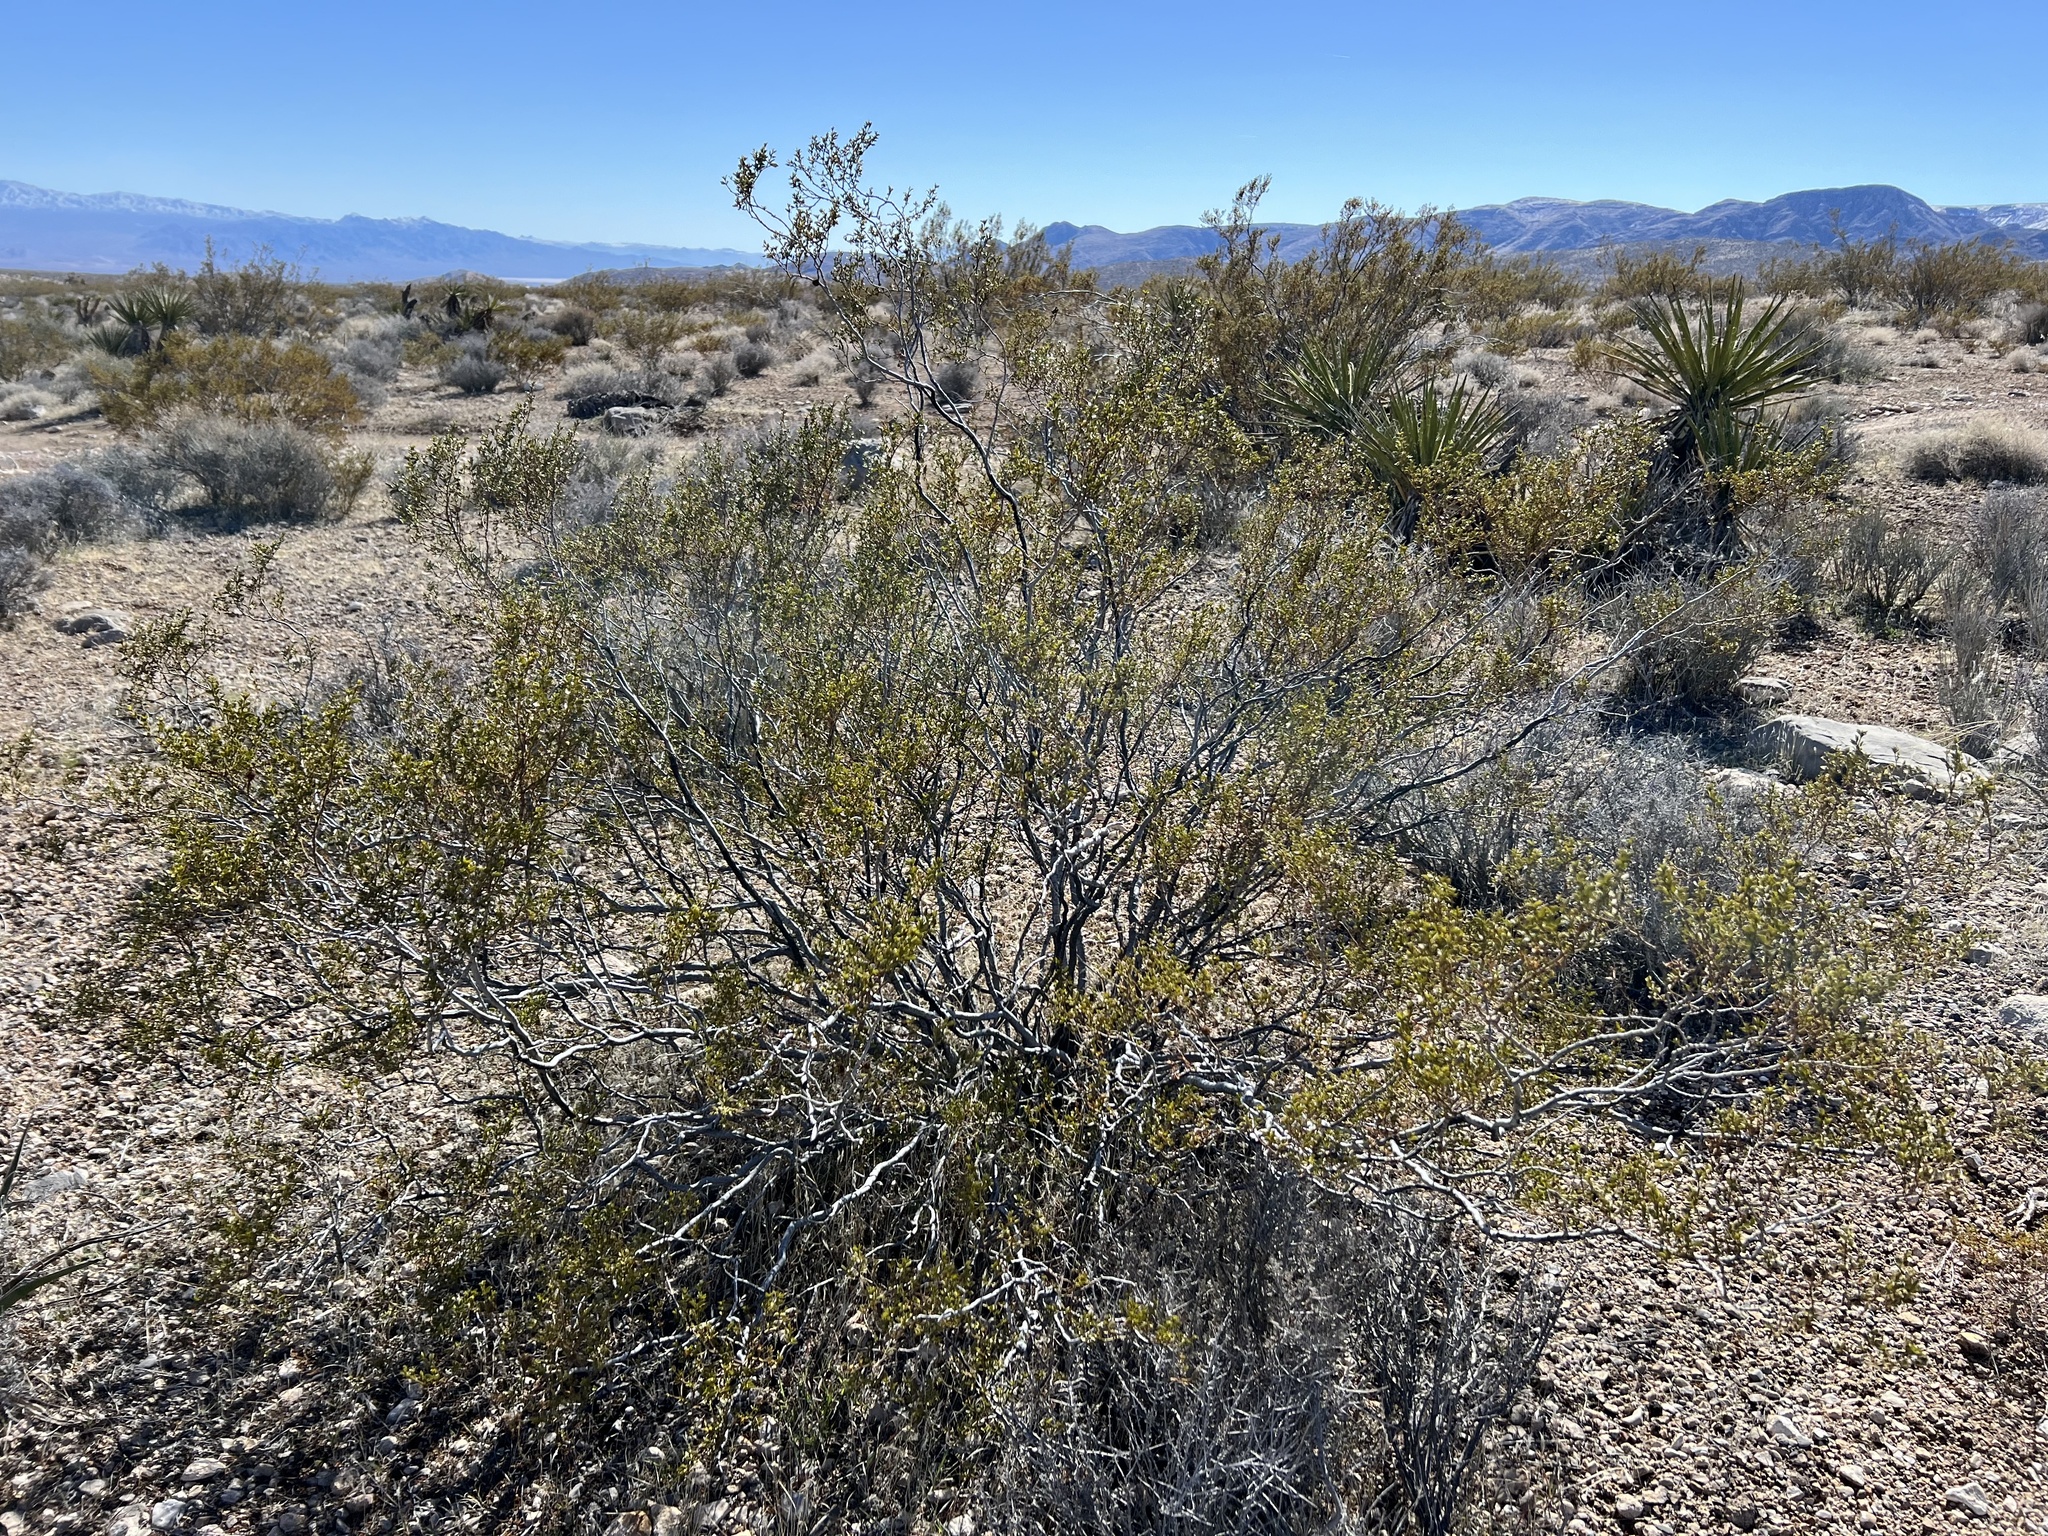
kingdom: Plantae
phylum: Tracheophyta
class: Magnoliopsida
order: Zygophyllales
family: Zygophyllaceae
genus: Larrea
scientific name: Larrea tridentata
